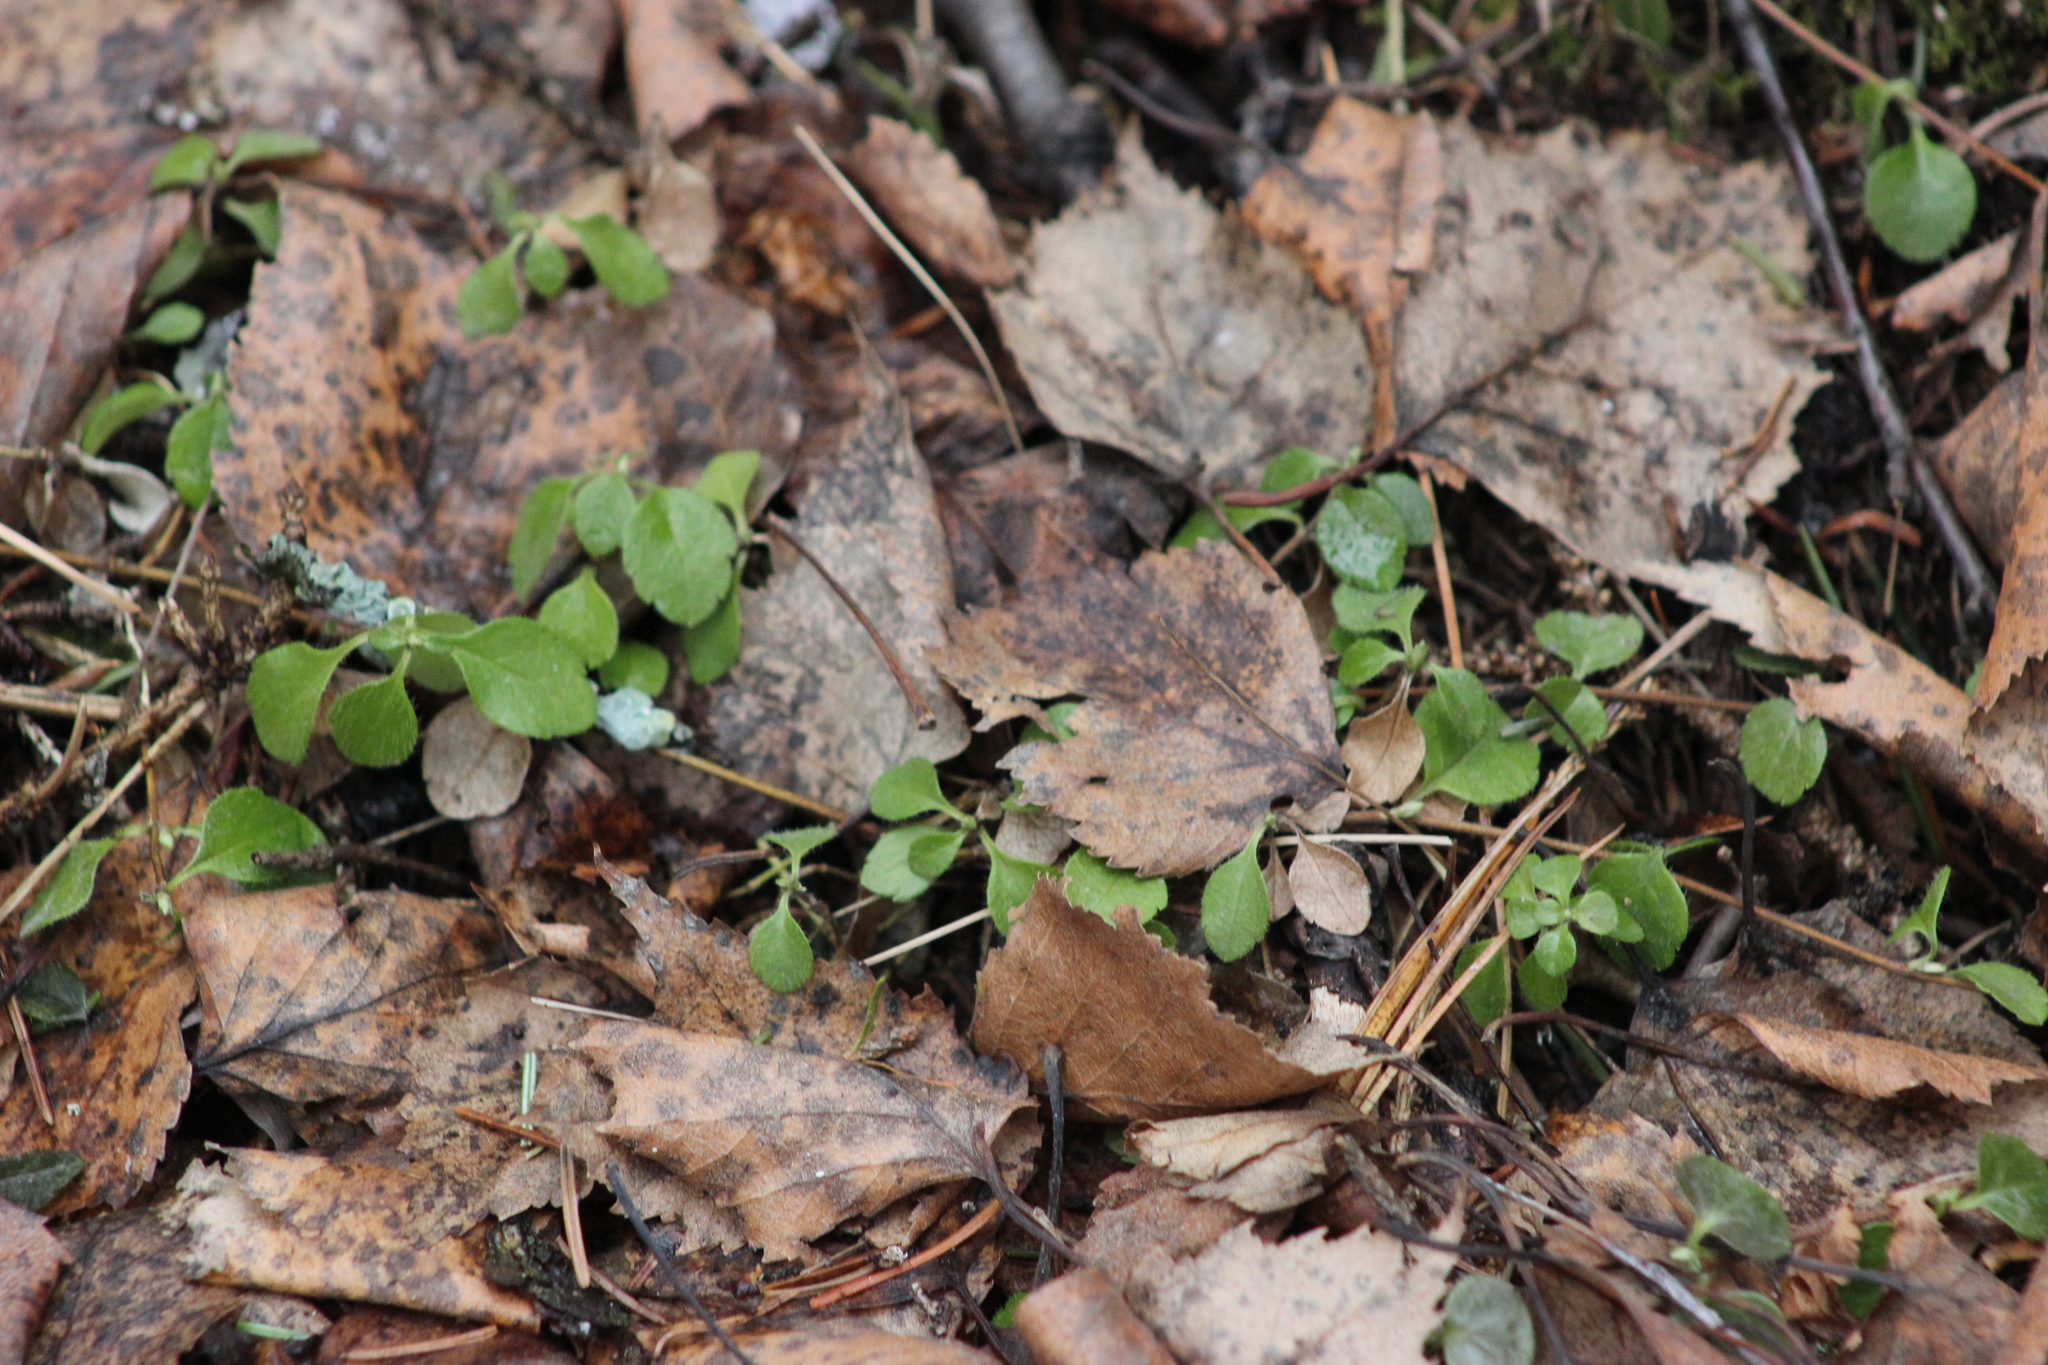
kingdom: Plantae
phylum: Tracheophyta
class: Magnoliopsida
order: Dipsacales
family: Caprifoliaceae
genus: Linnaea
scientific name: Linnaea borealis
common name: Twinflower
